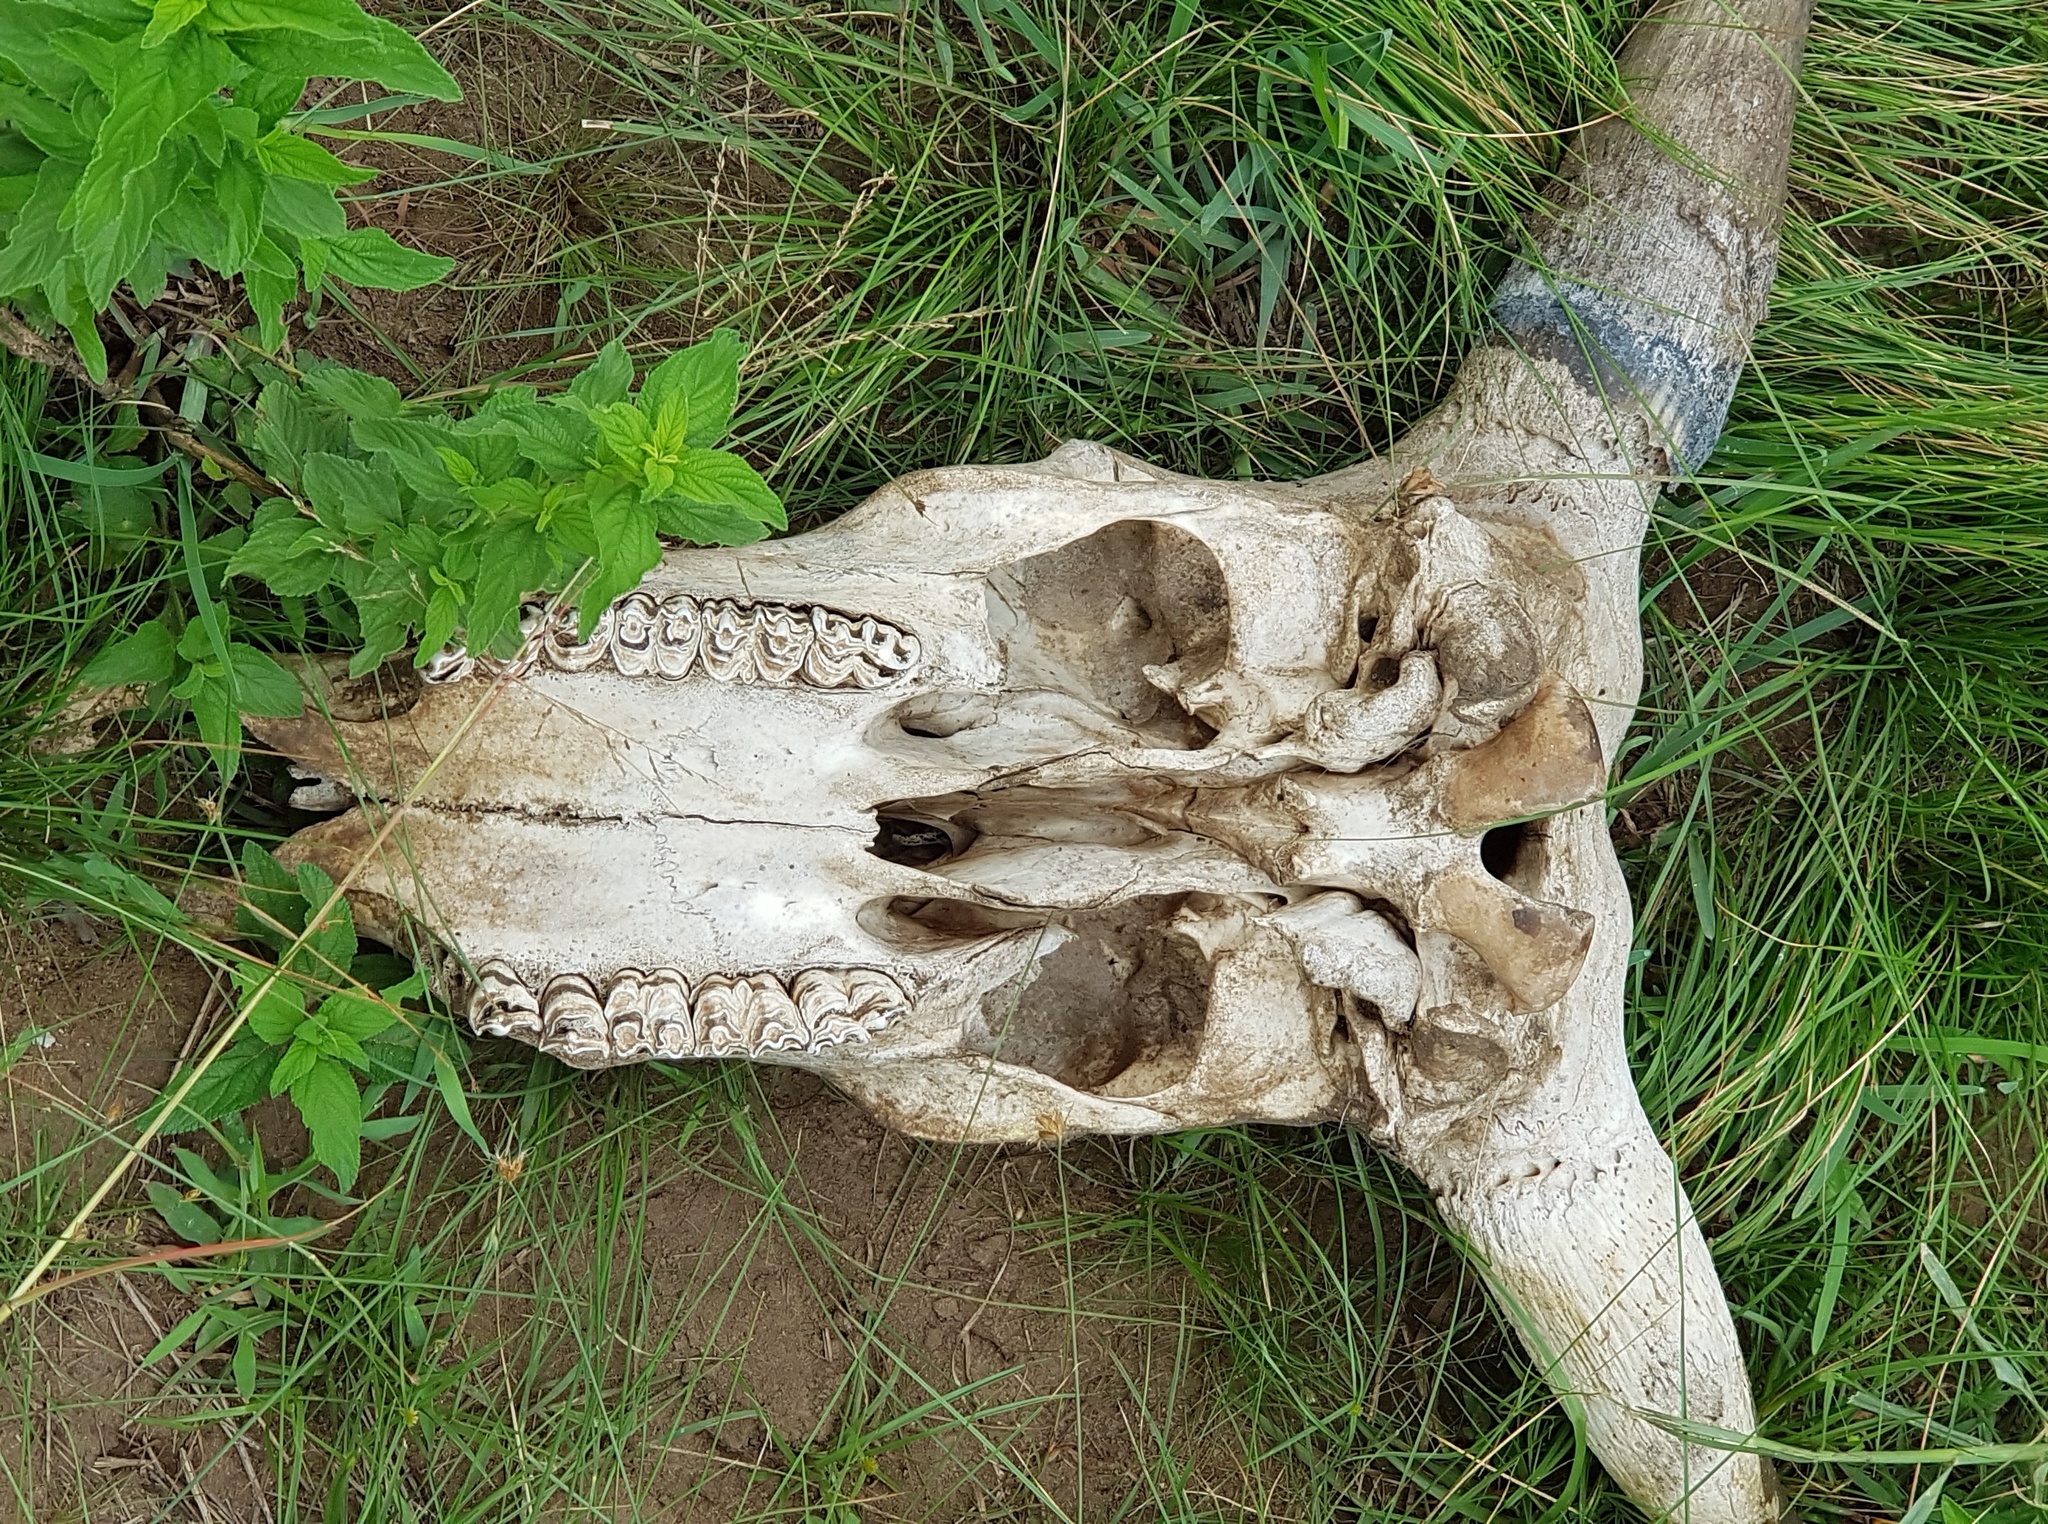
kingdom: Animalia
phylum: Chordata
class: Mammalia
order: Artiodactyla
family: Bovidae
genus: Bos
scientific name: Bos taurus
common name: Domesticated cattle
